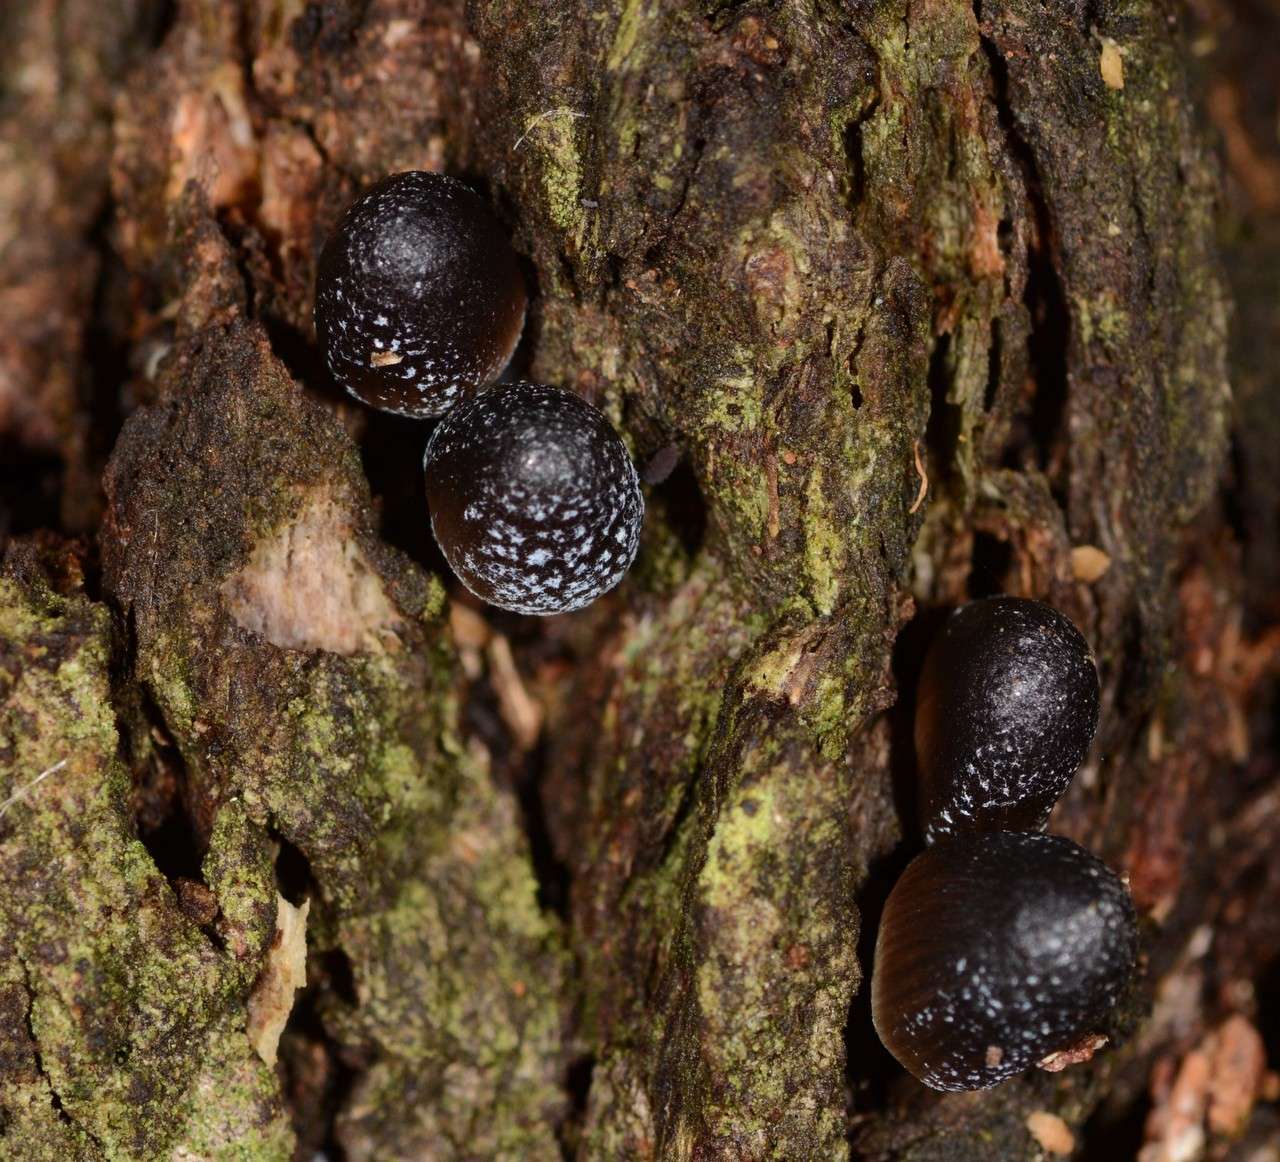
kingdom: Fungi
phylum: Basidiomycota
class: Agaricomycetes
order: Agaricales
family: Mycenaceae
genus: Mycena
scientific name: Mycena nargan
